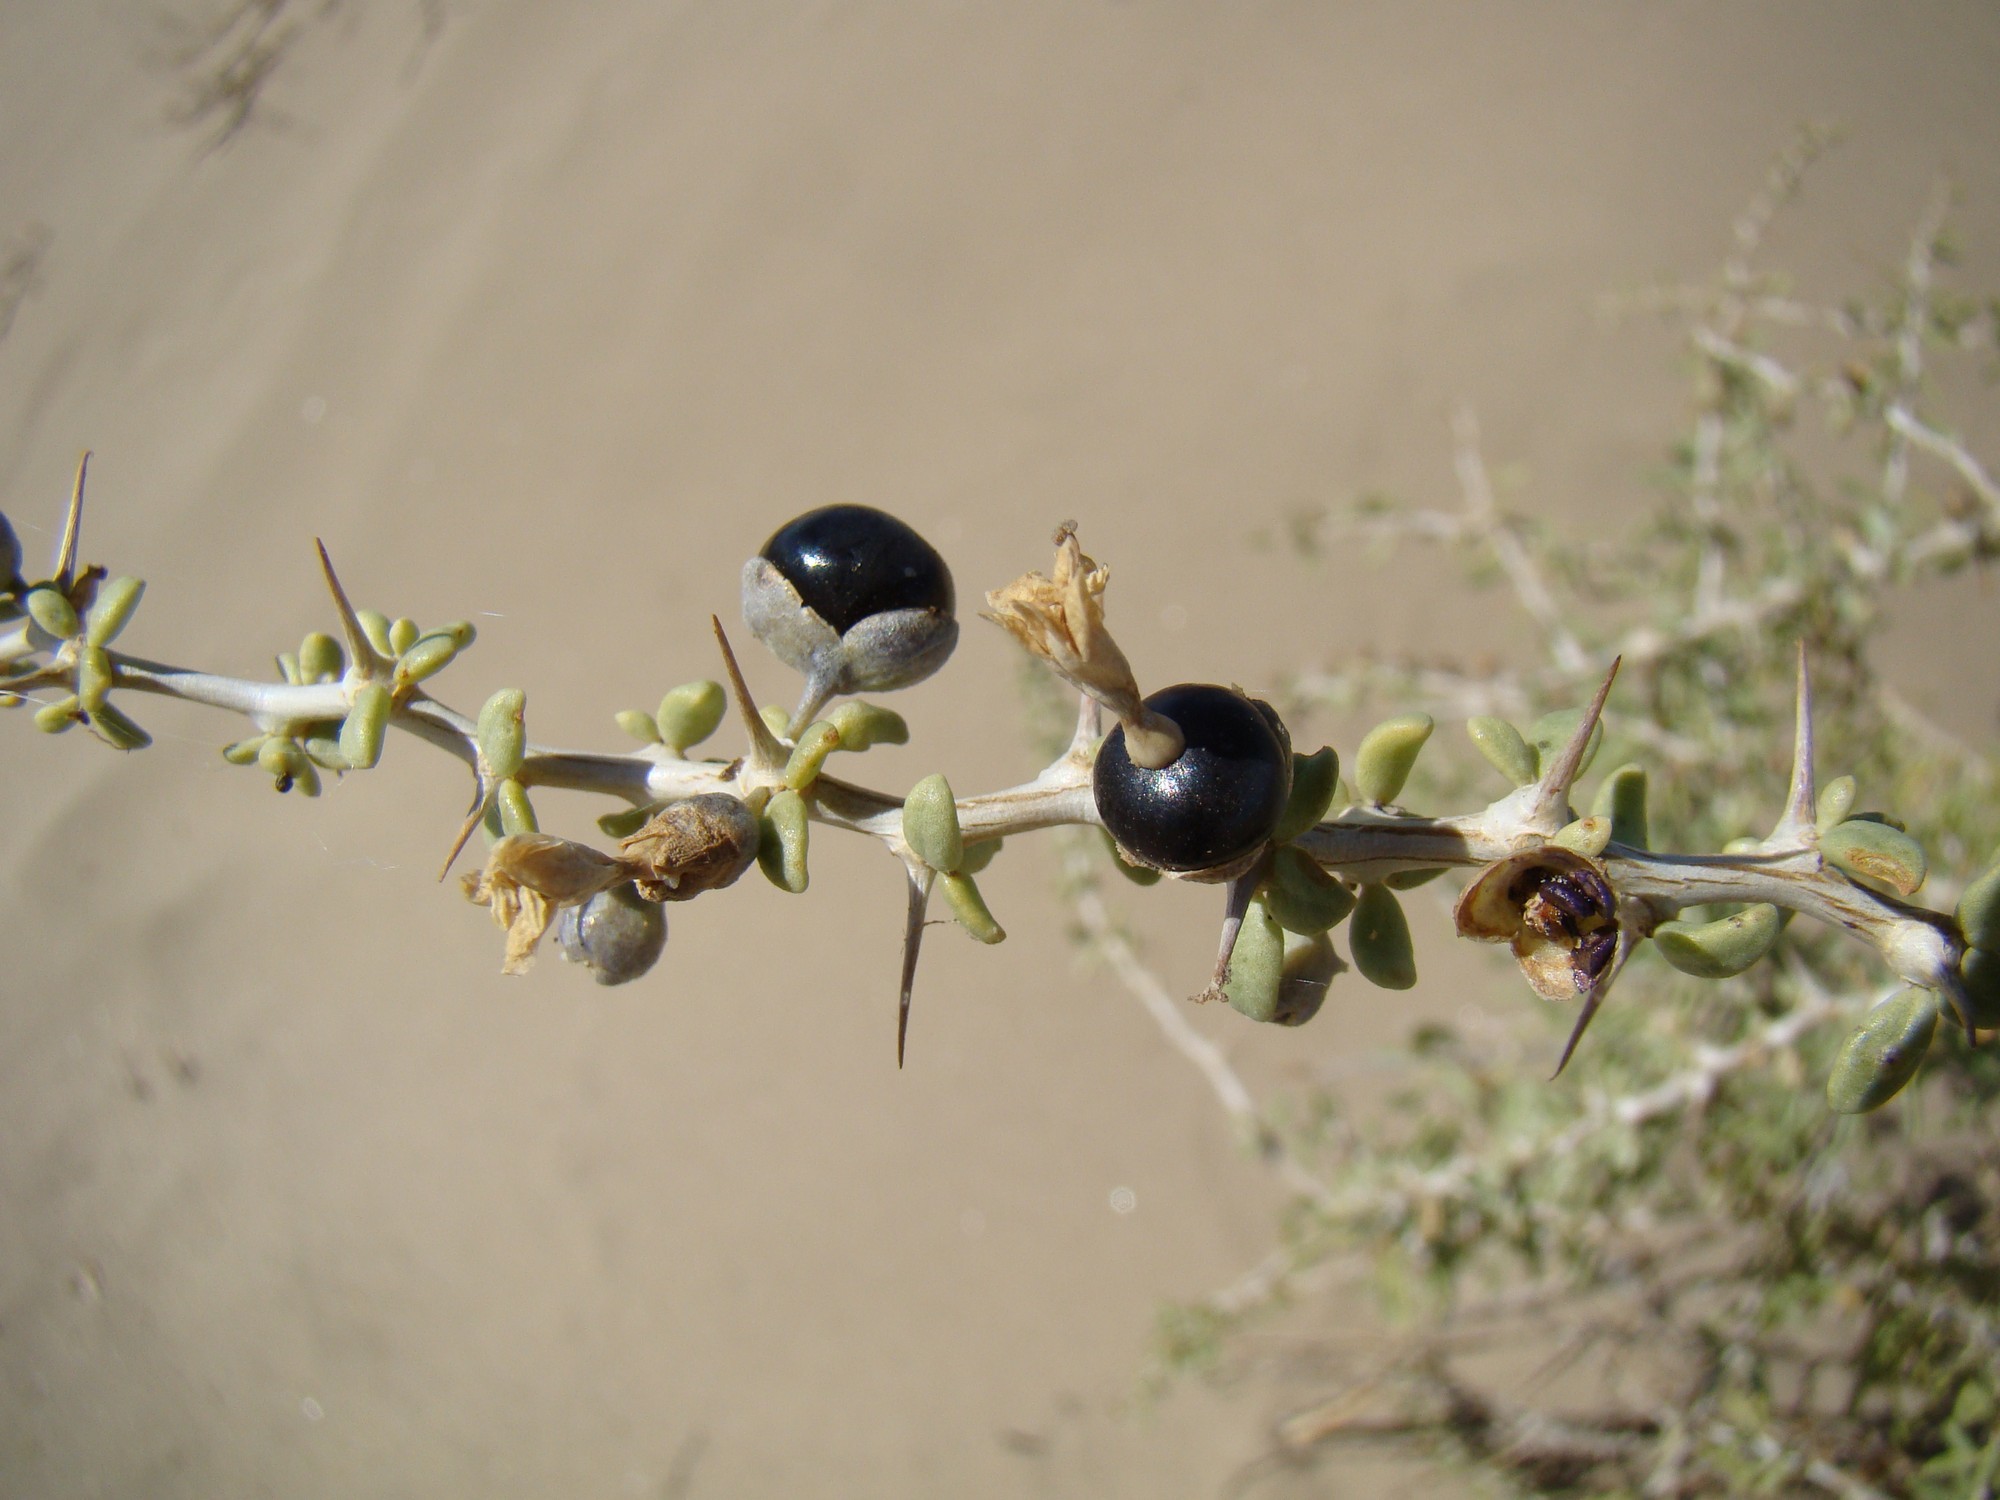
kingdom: Plantae
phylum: Tracheophyta
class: Magnoliopsida
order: Solanales
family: Solanaceae
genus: Lycium
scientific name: Lycium ruthenicum
